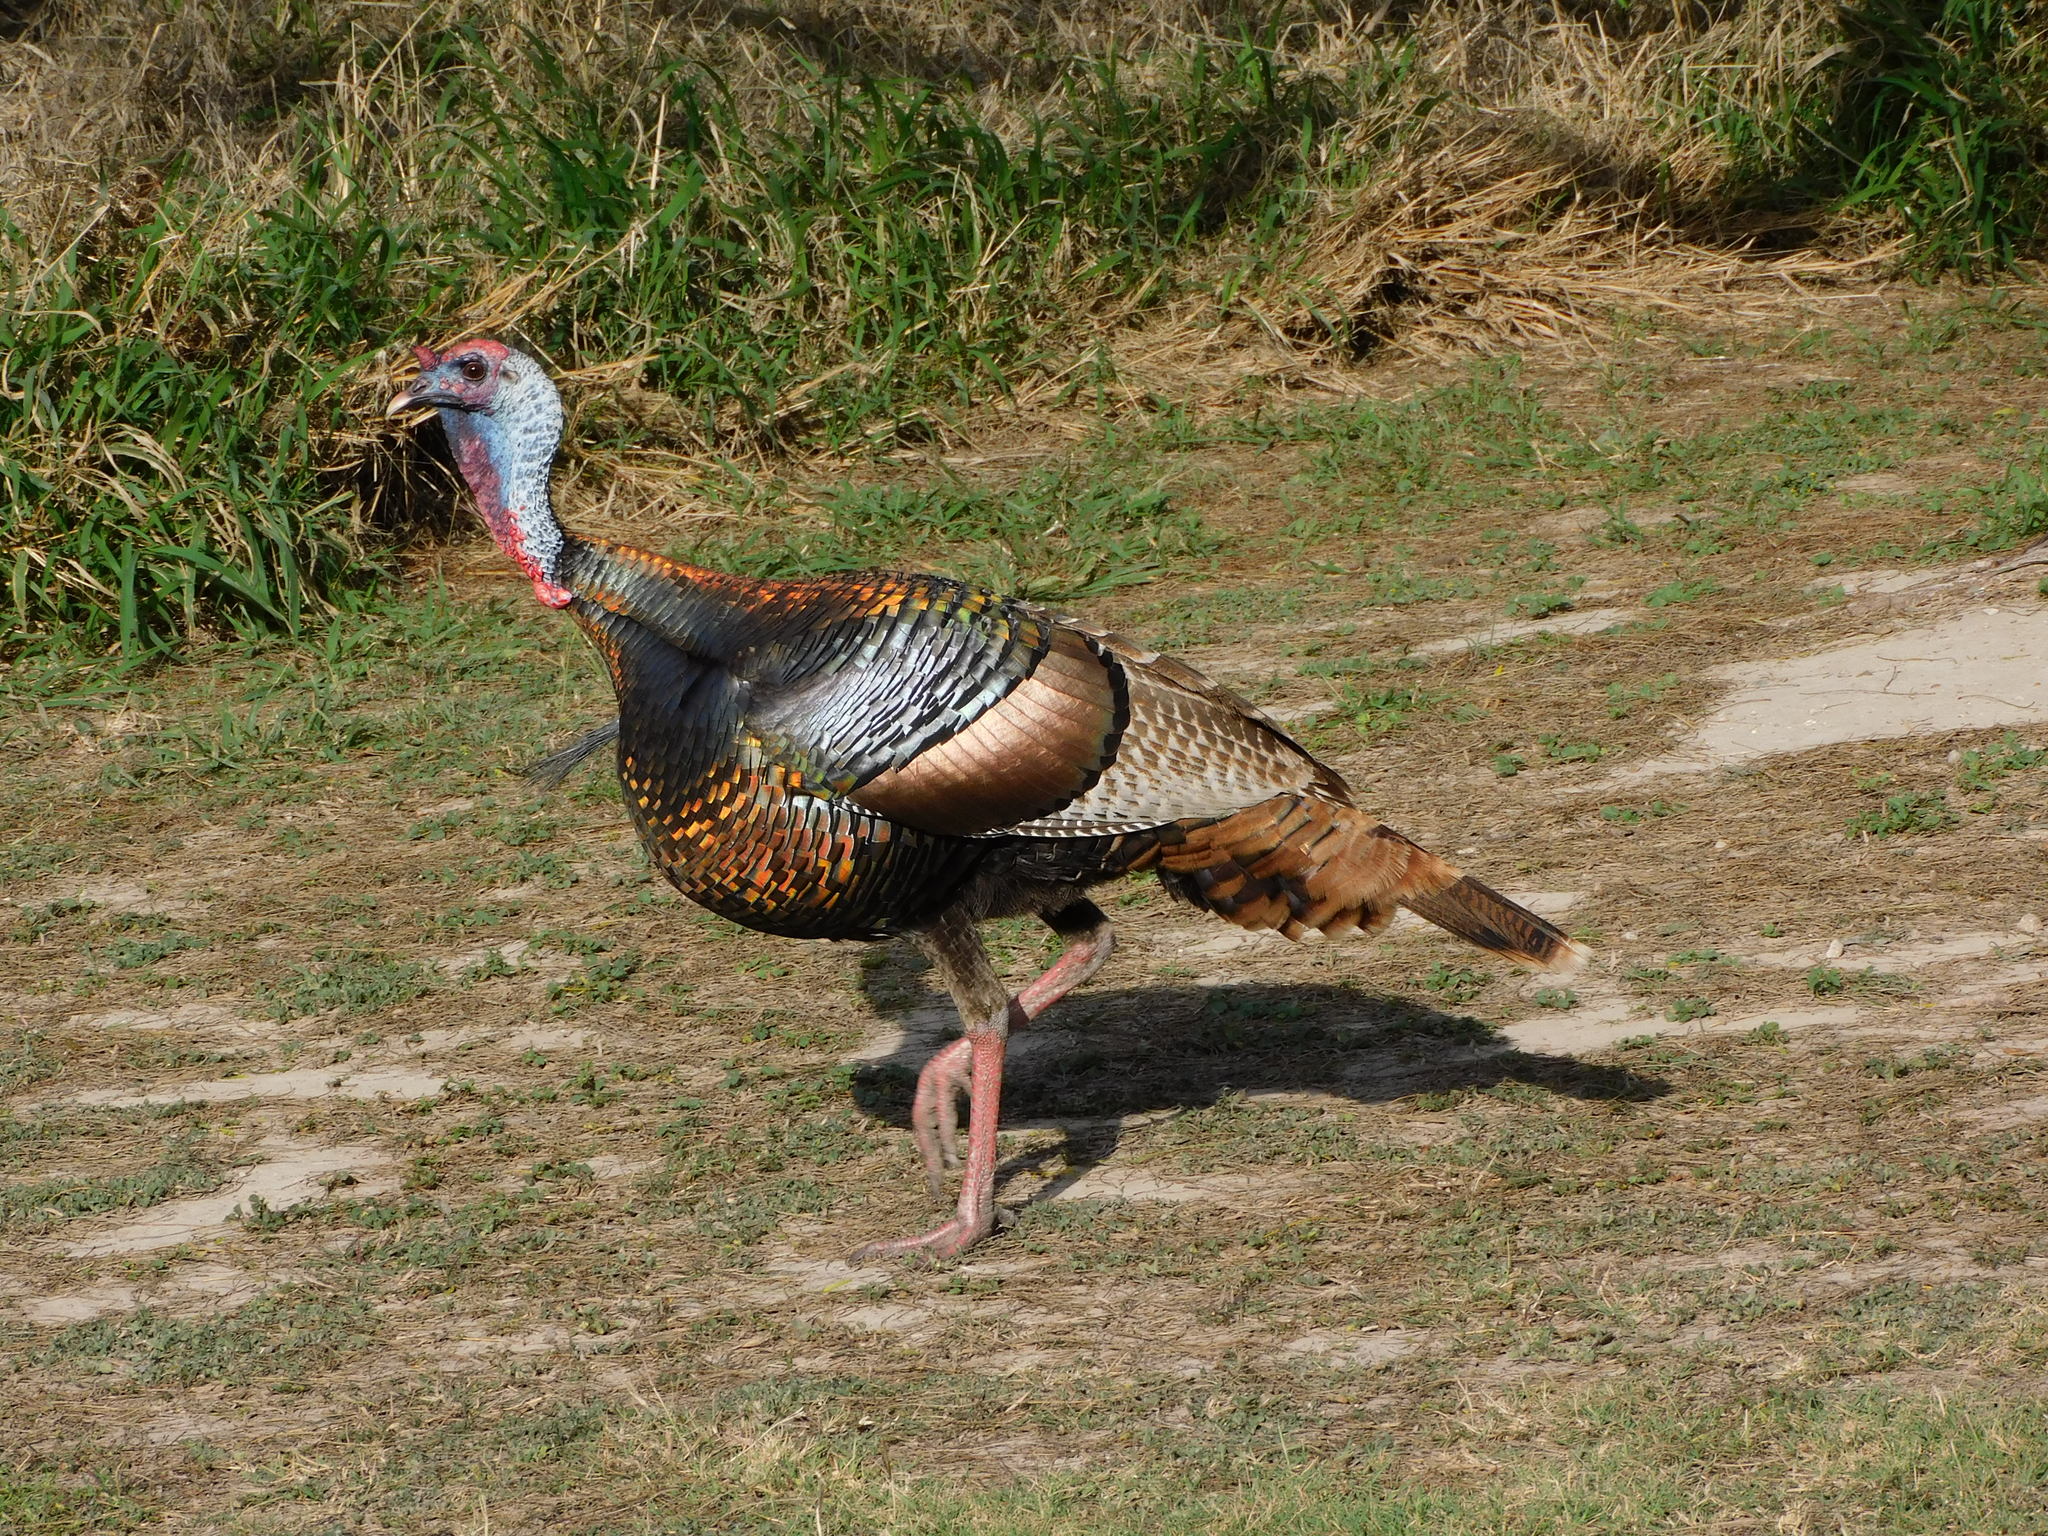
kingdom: Animalia
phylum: Chordata
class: Aves
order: Galliformes
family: Phasianidae
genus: Meleagris
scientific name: Meleagris gallopavo
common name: Wild turkey
